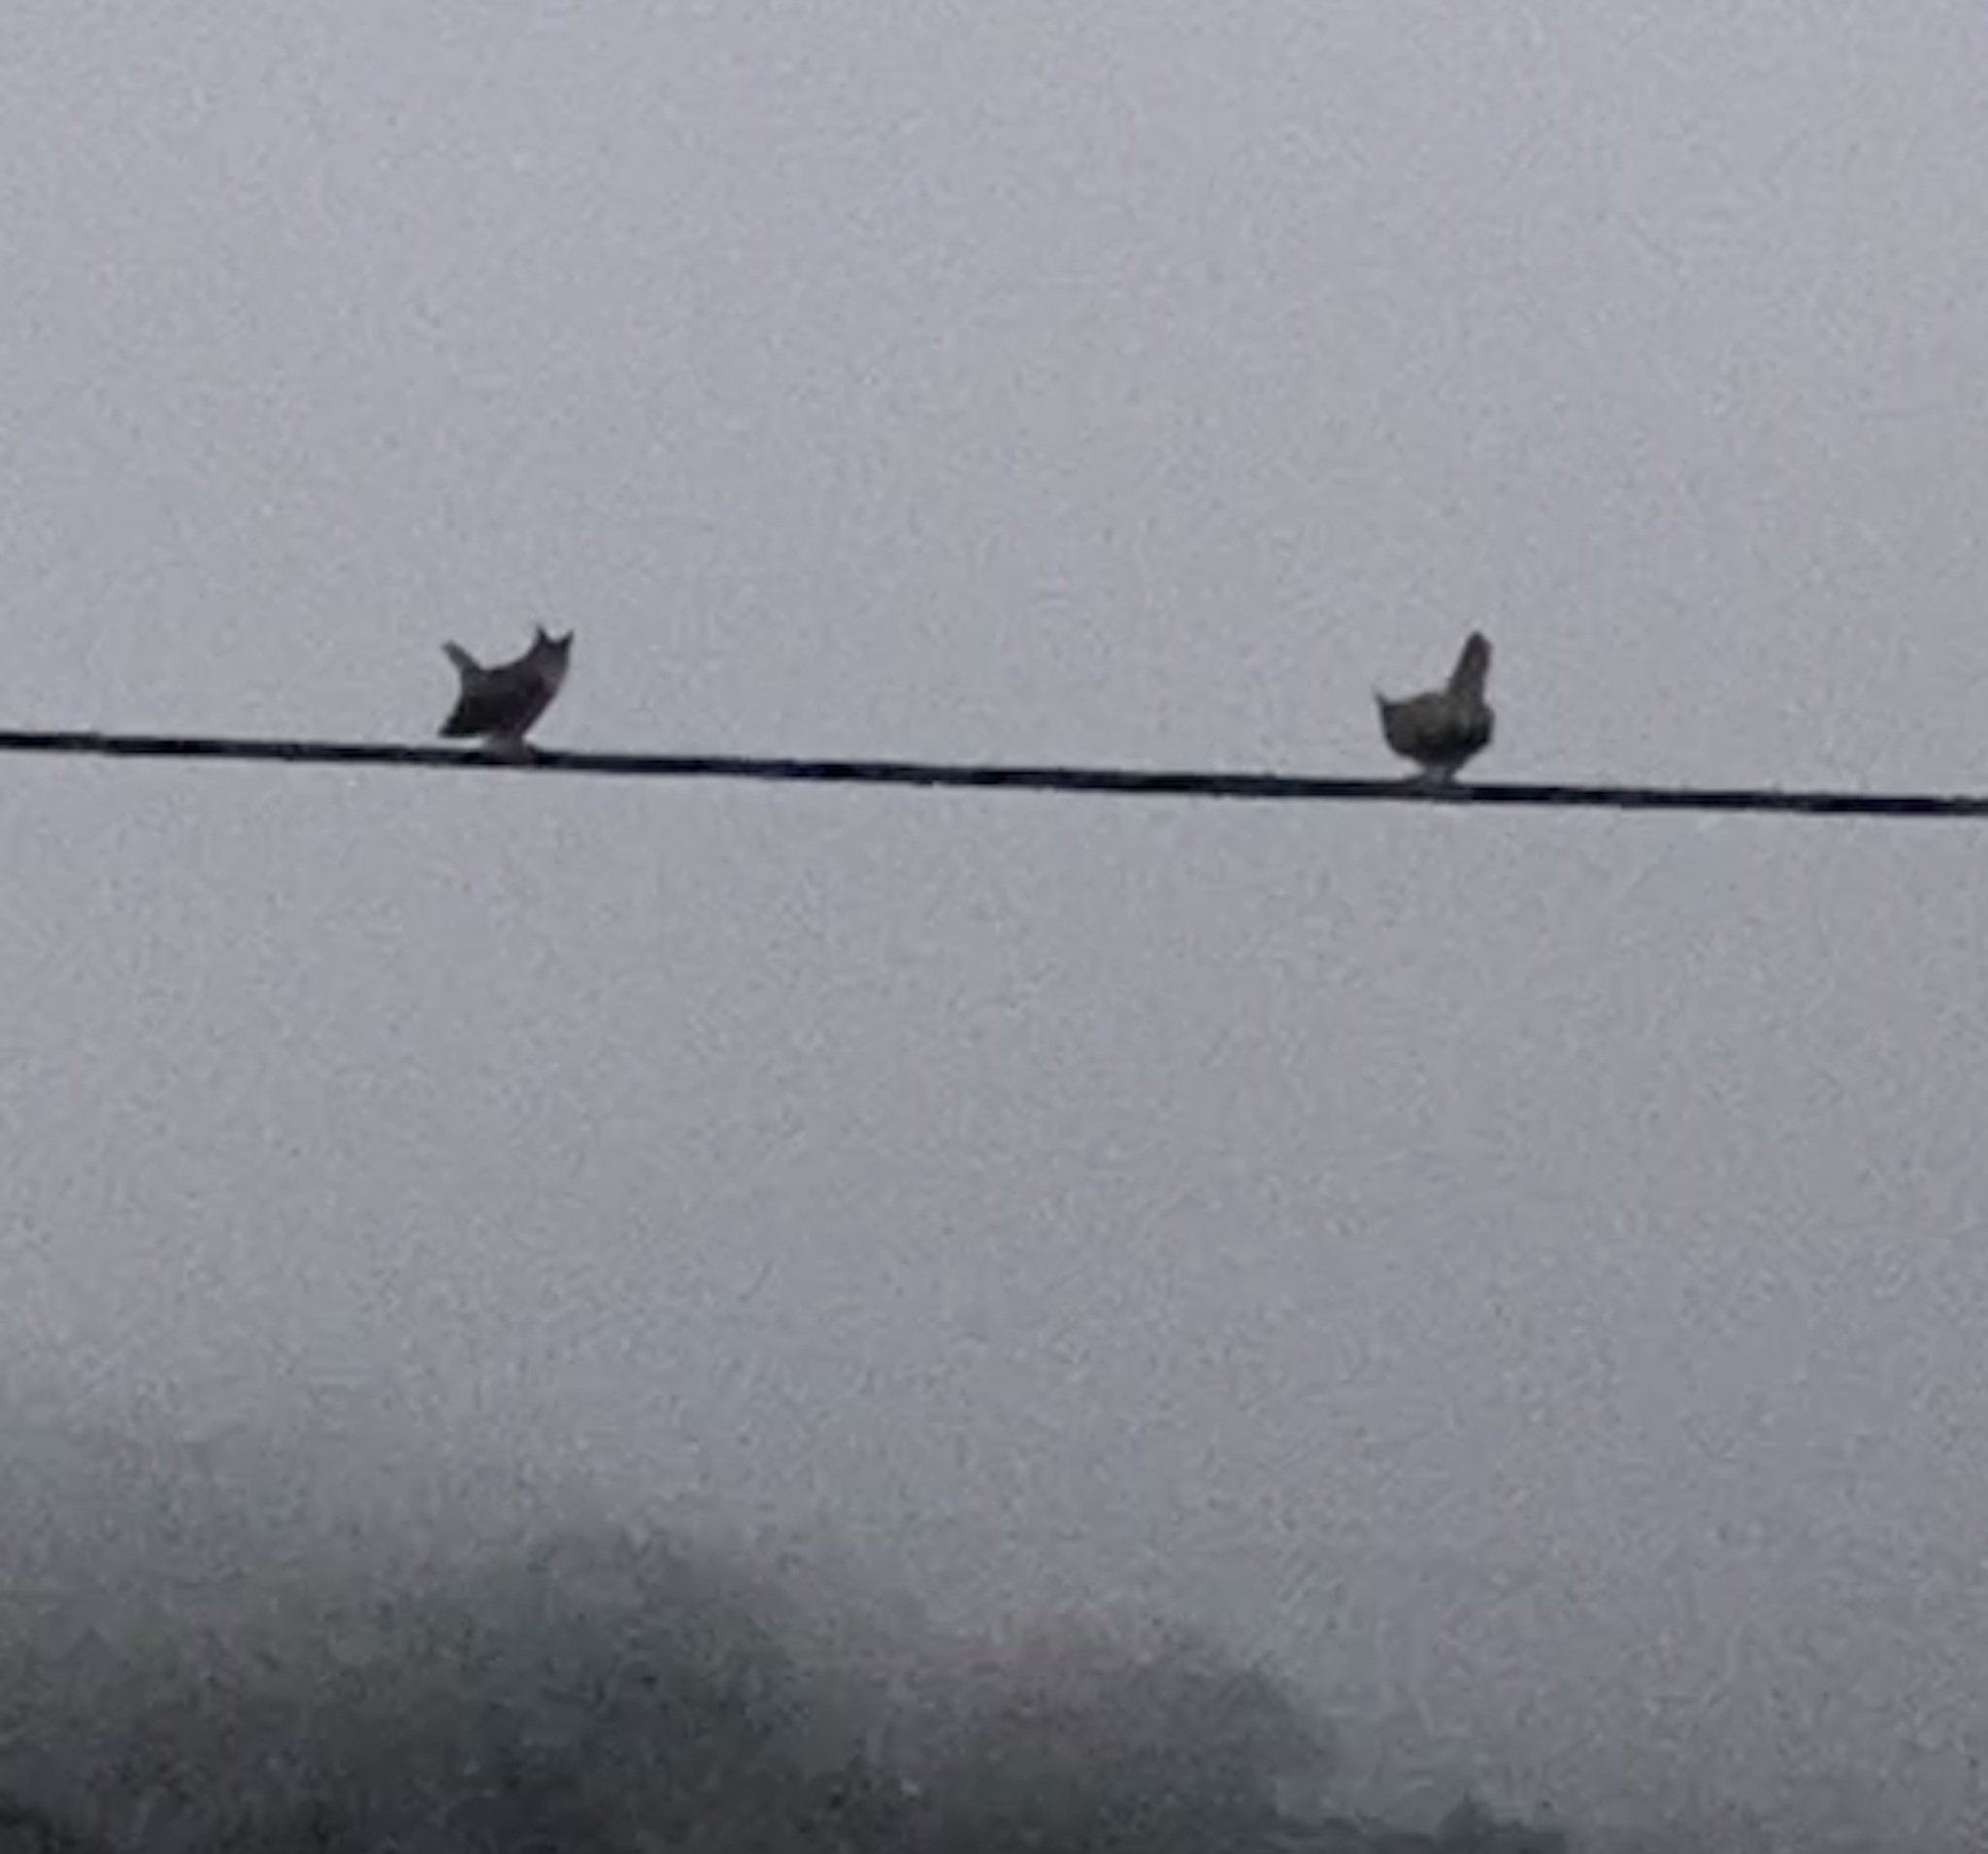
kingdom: Animalia
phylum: Chordata
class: Aves
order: Strigiformes
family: Strigidae
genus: Bubo
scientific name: Bubo virginianus
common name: Great horned owl
